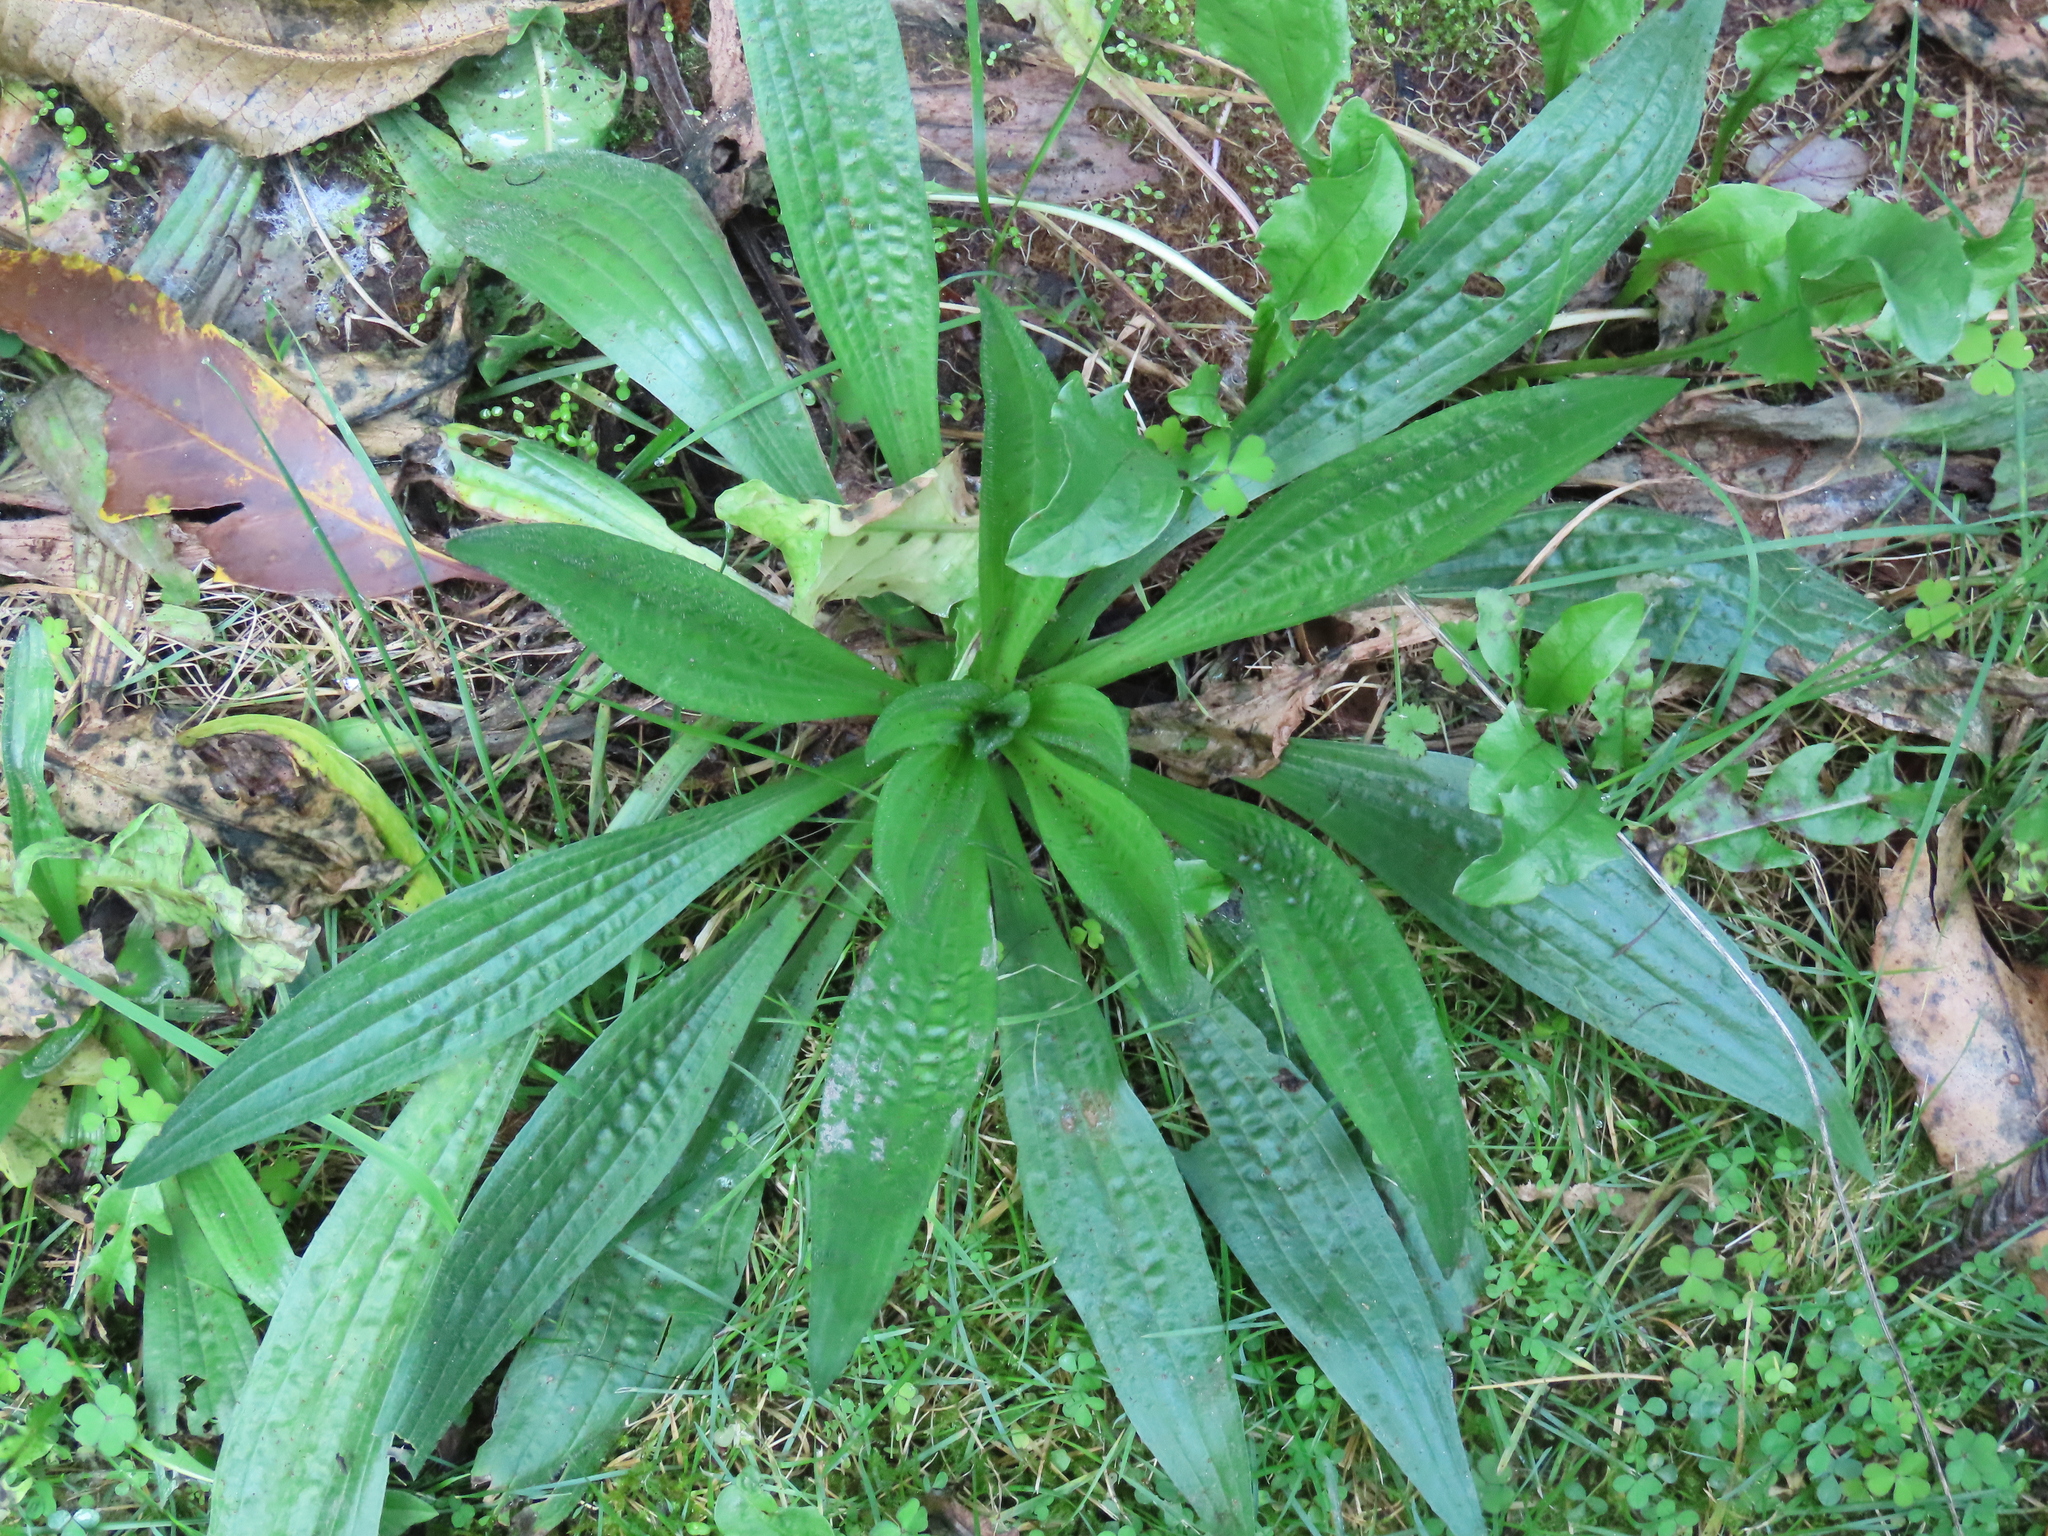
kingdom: Plantae
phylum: Tracheophyta
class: Magnoliopsida
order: Lamiales
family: Plantaginaceae
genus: Plantago
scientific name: Plantago lanceolata
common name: Ribwort plantain
